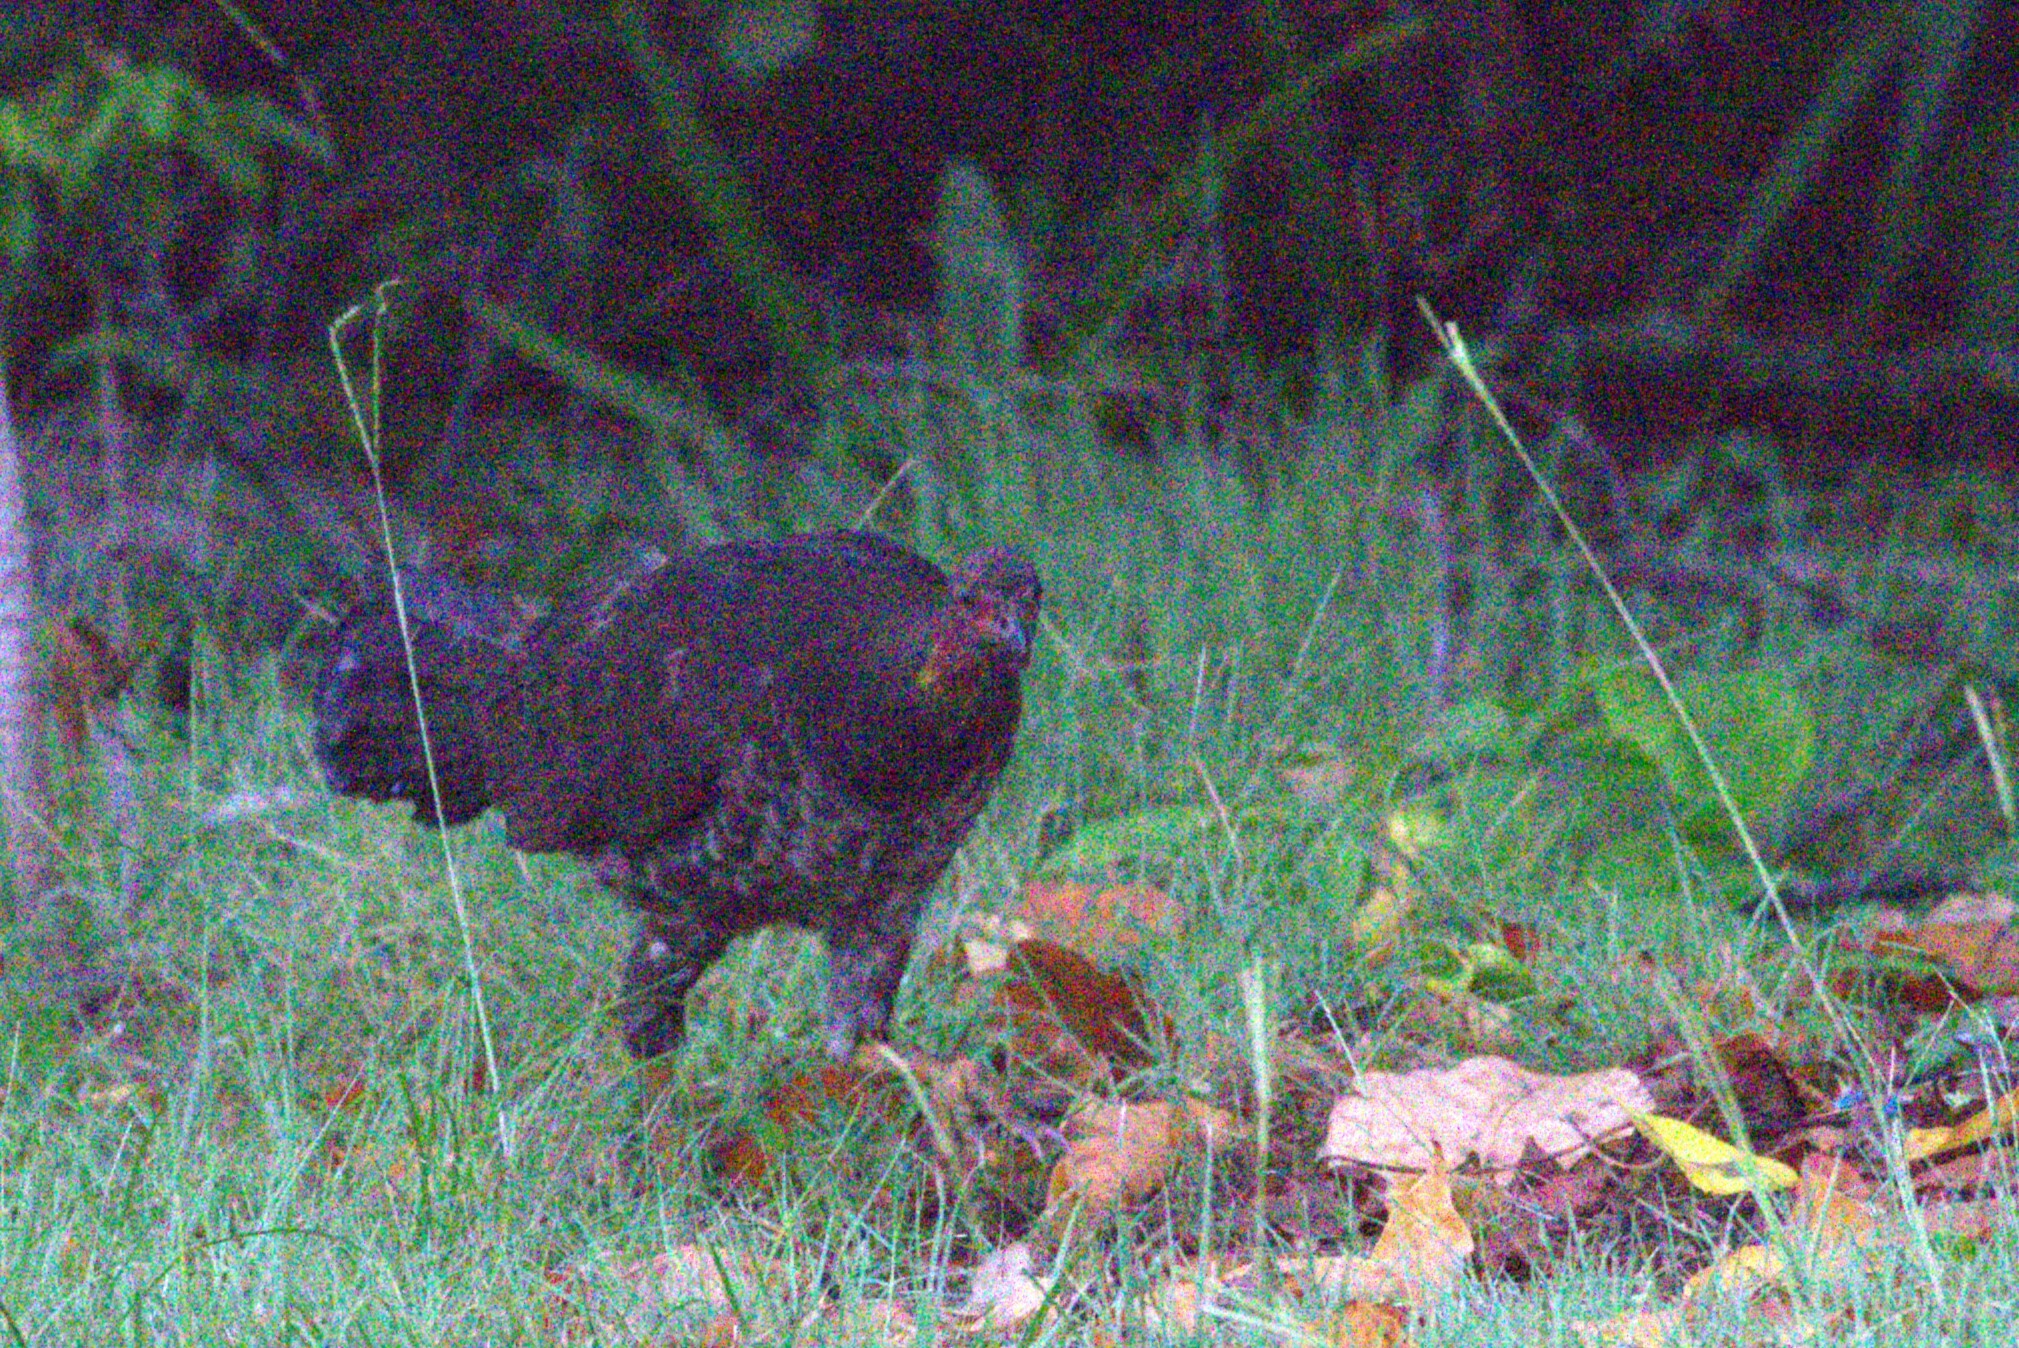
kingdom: Animalia
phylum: Chordata
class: Aves
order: Galliformes
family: Megapodiidae
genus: Alectura
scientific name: Alectura lathami
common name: Australian brushturkey
